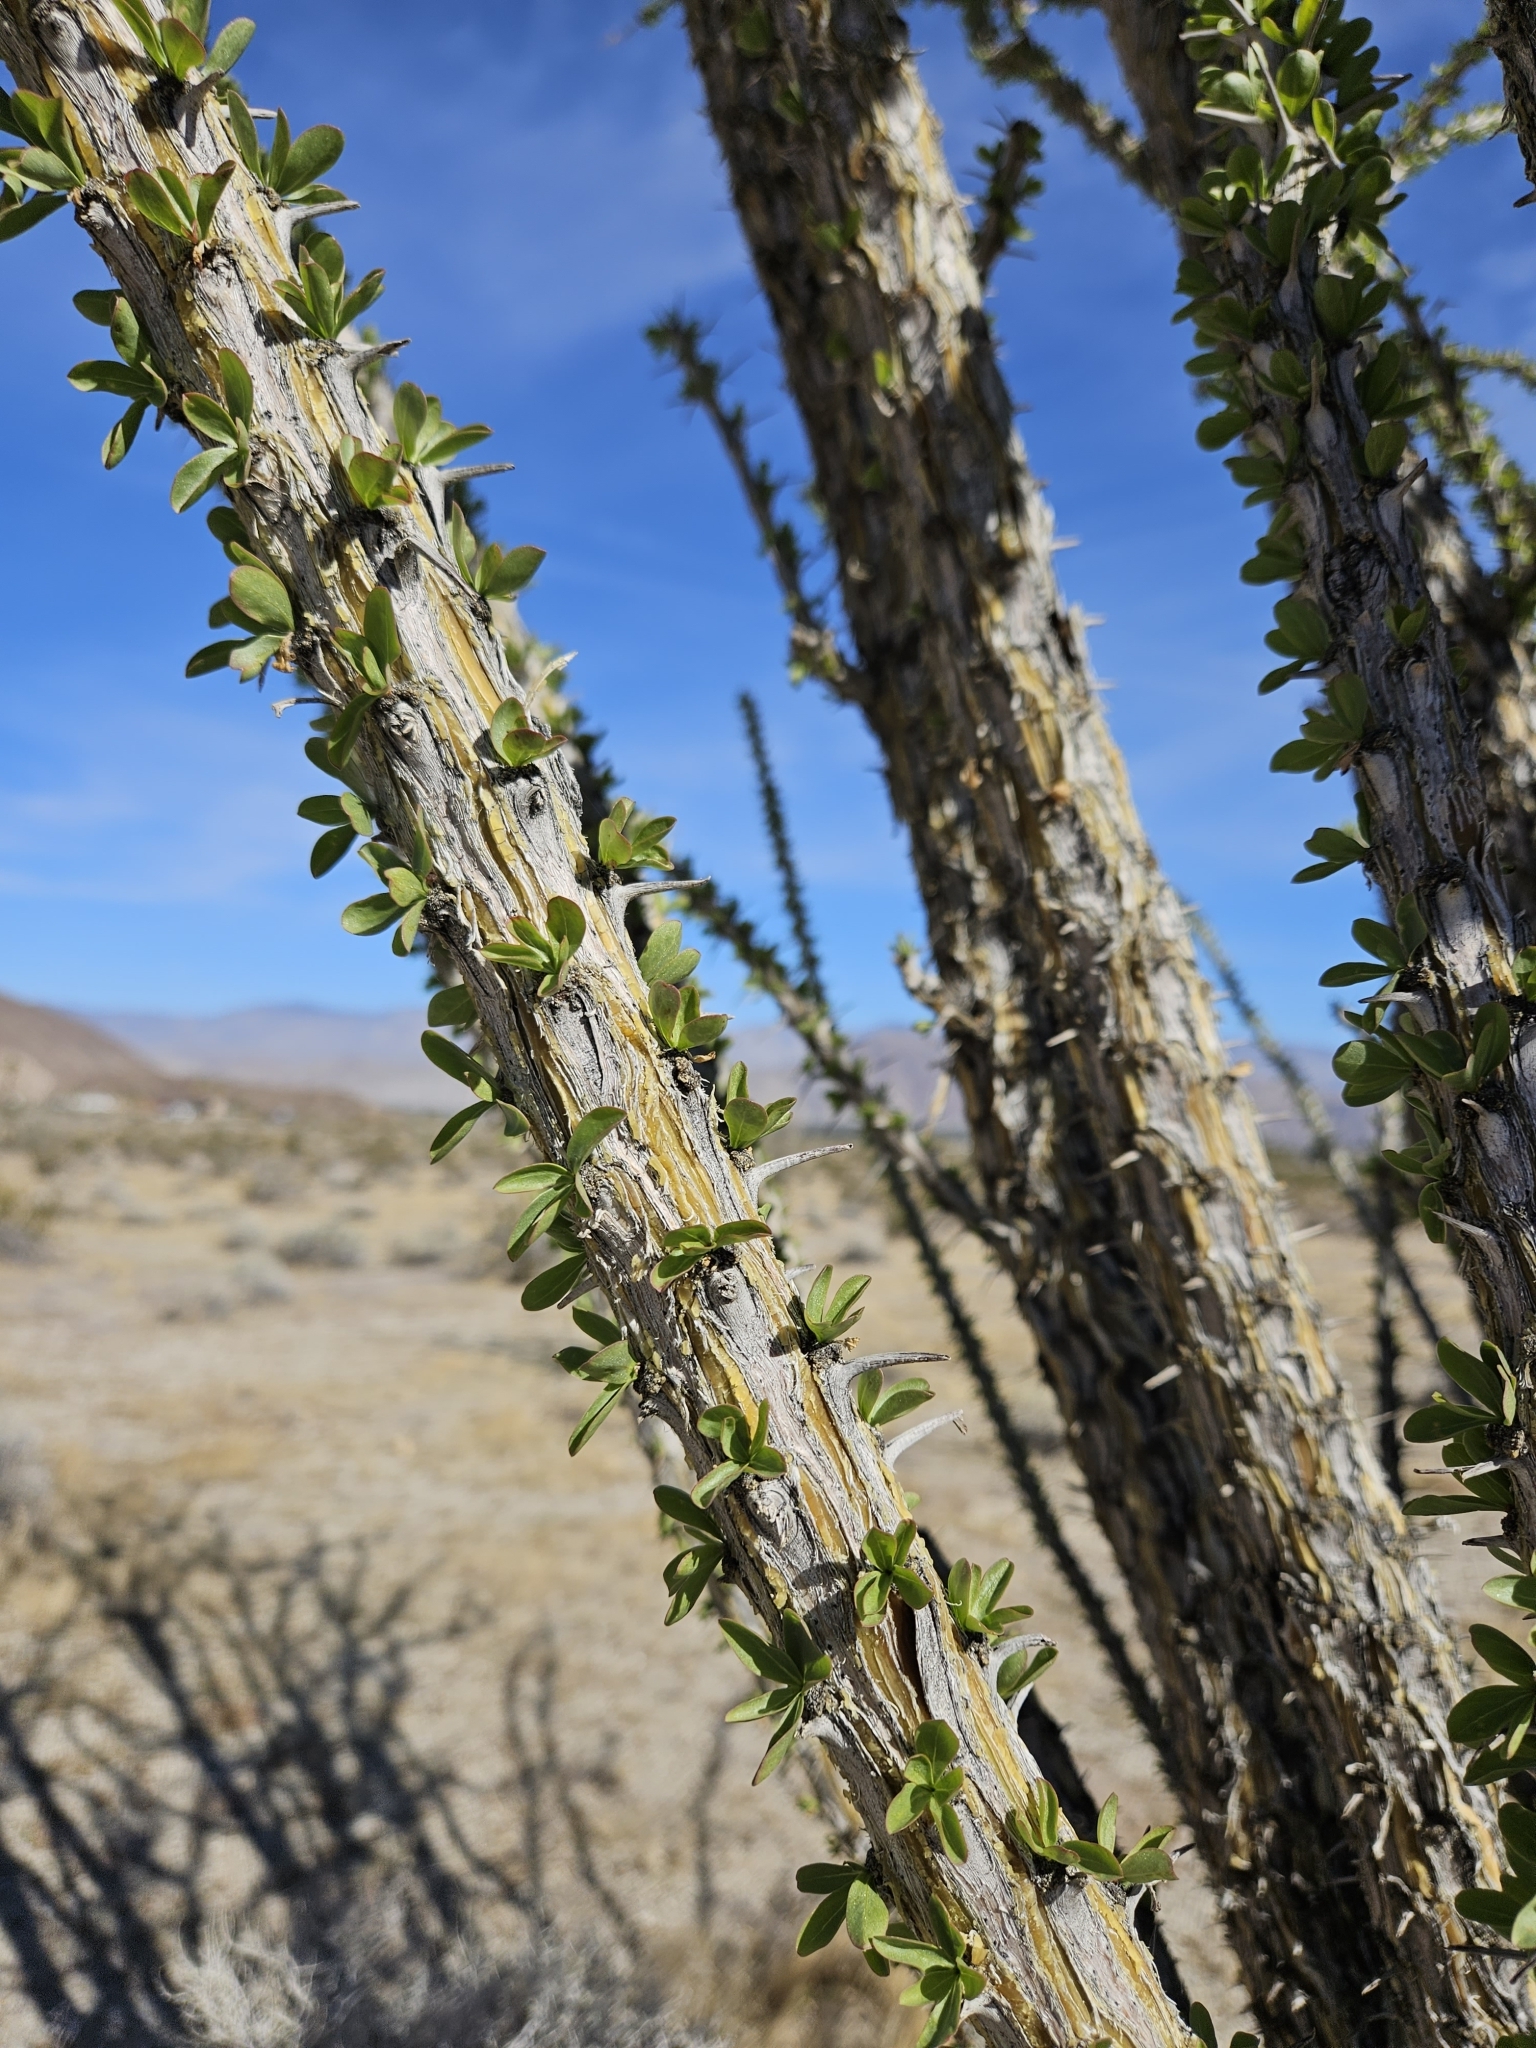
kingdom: Plantae
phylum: Tracheophyta
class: Magnoliopsida
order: Ericales
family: Fouquieriaceae
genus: Fouquieria
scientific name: Fouquieria splendens
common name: Vine-cactus
